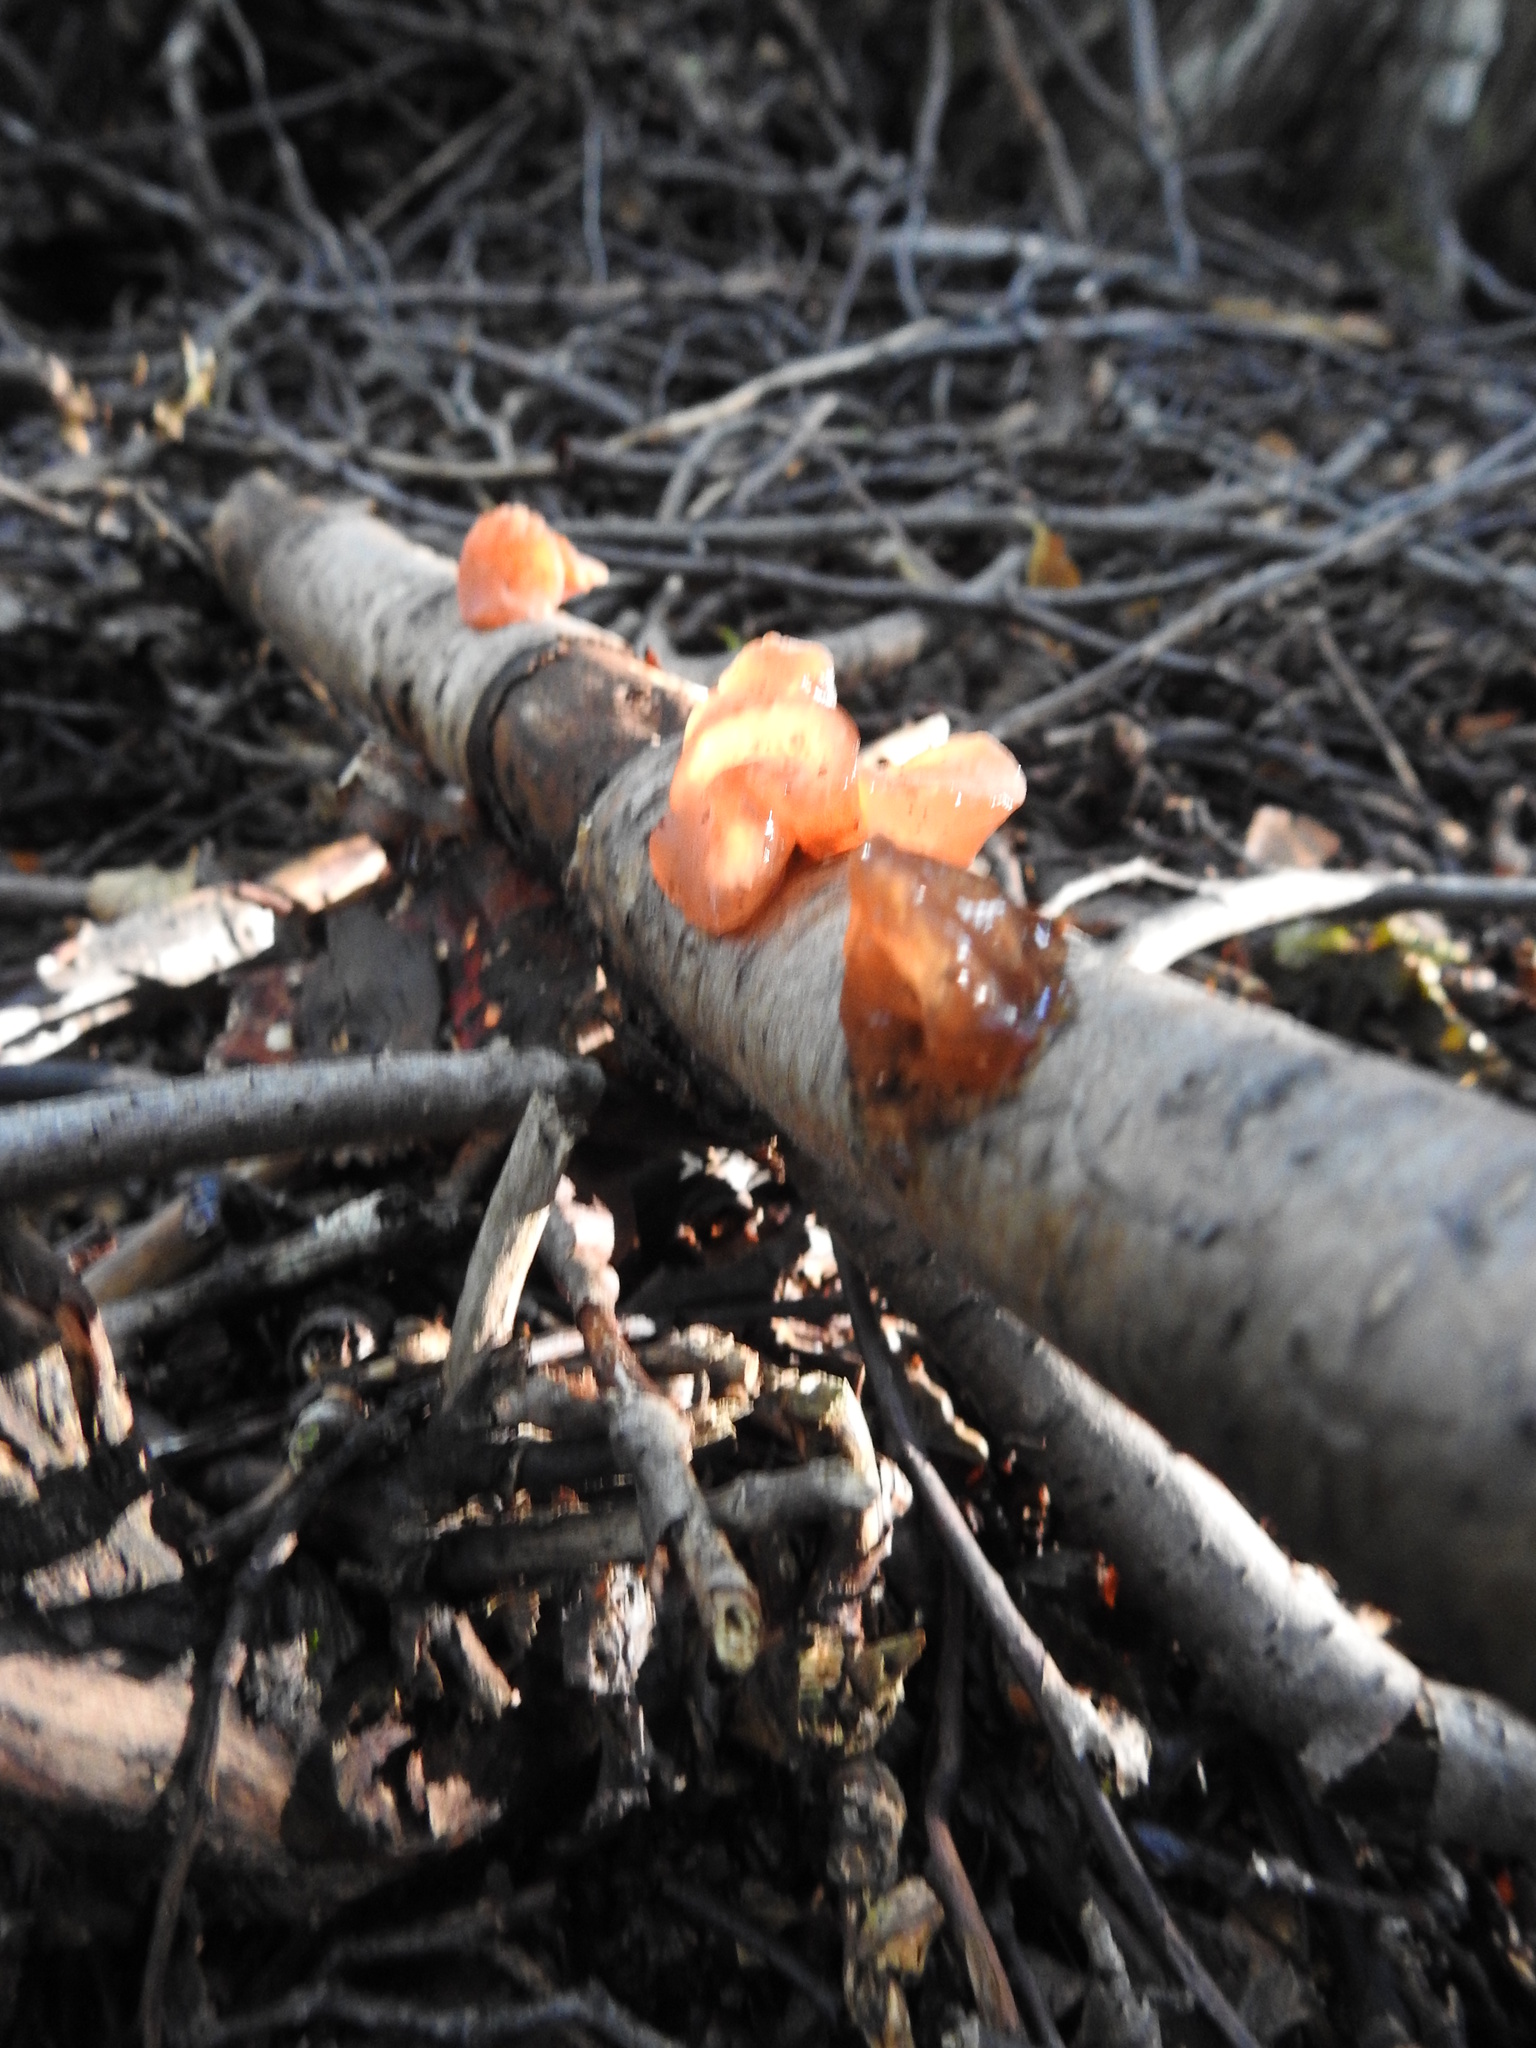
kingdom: Fungi
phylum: Basidiomycota
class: Dacrymycetes
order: Dacrymycetales
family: Dacrymycetaceae
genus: Guepiniopsis
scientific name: Guepiniopsis alpina
